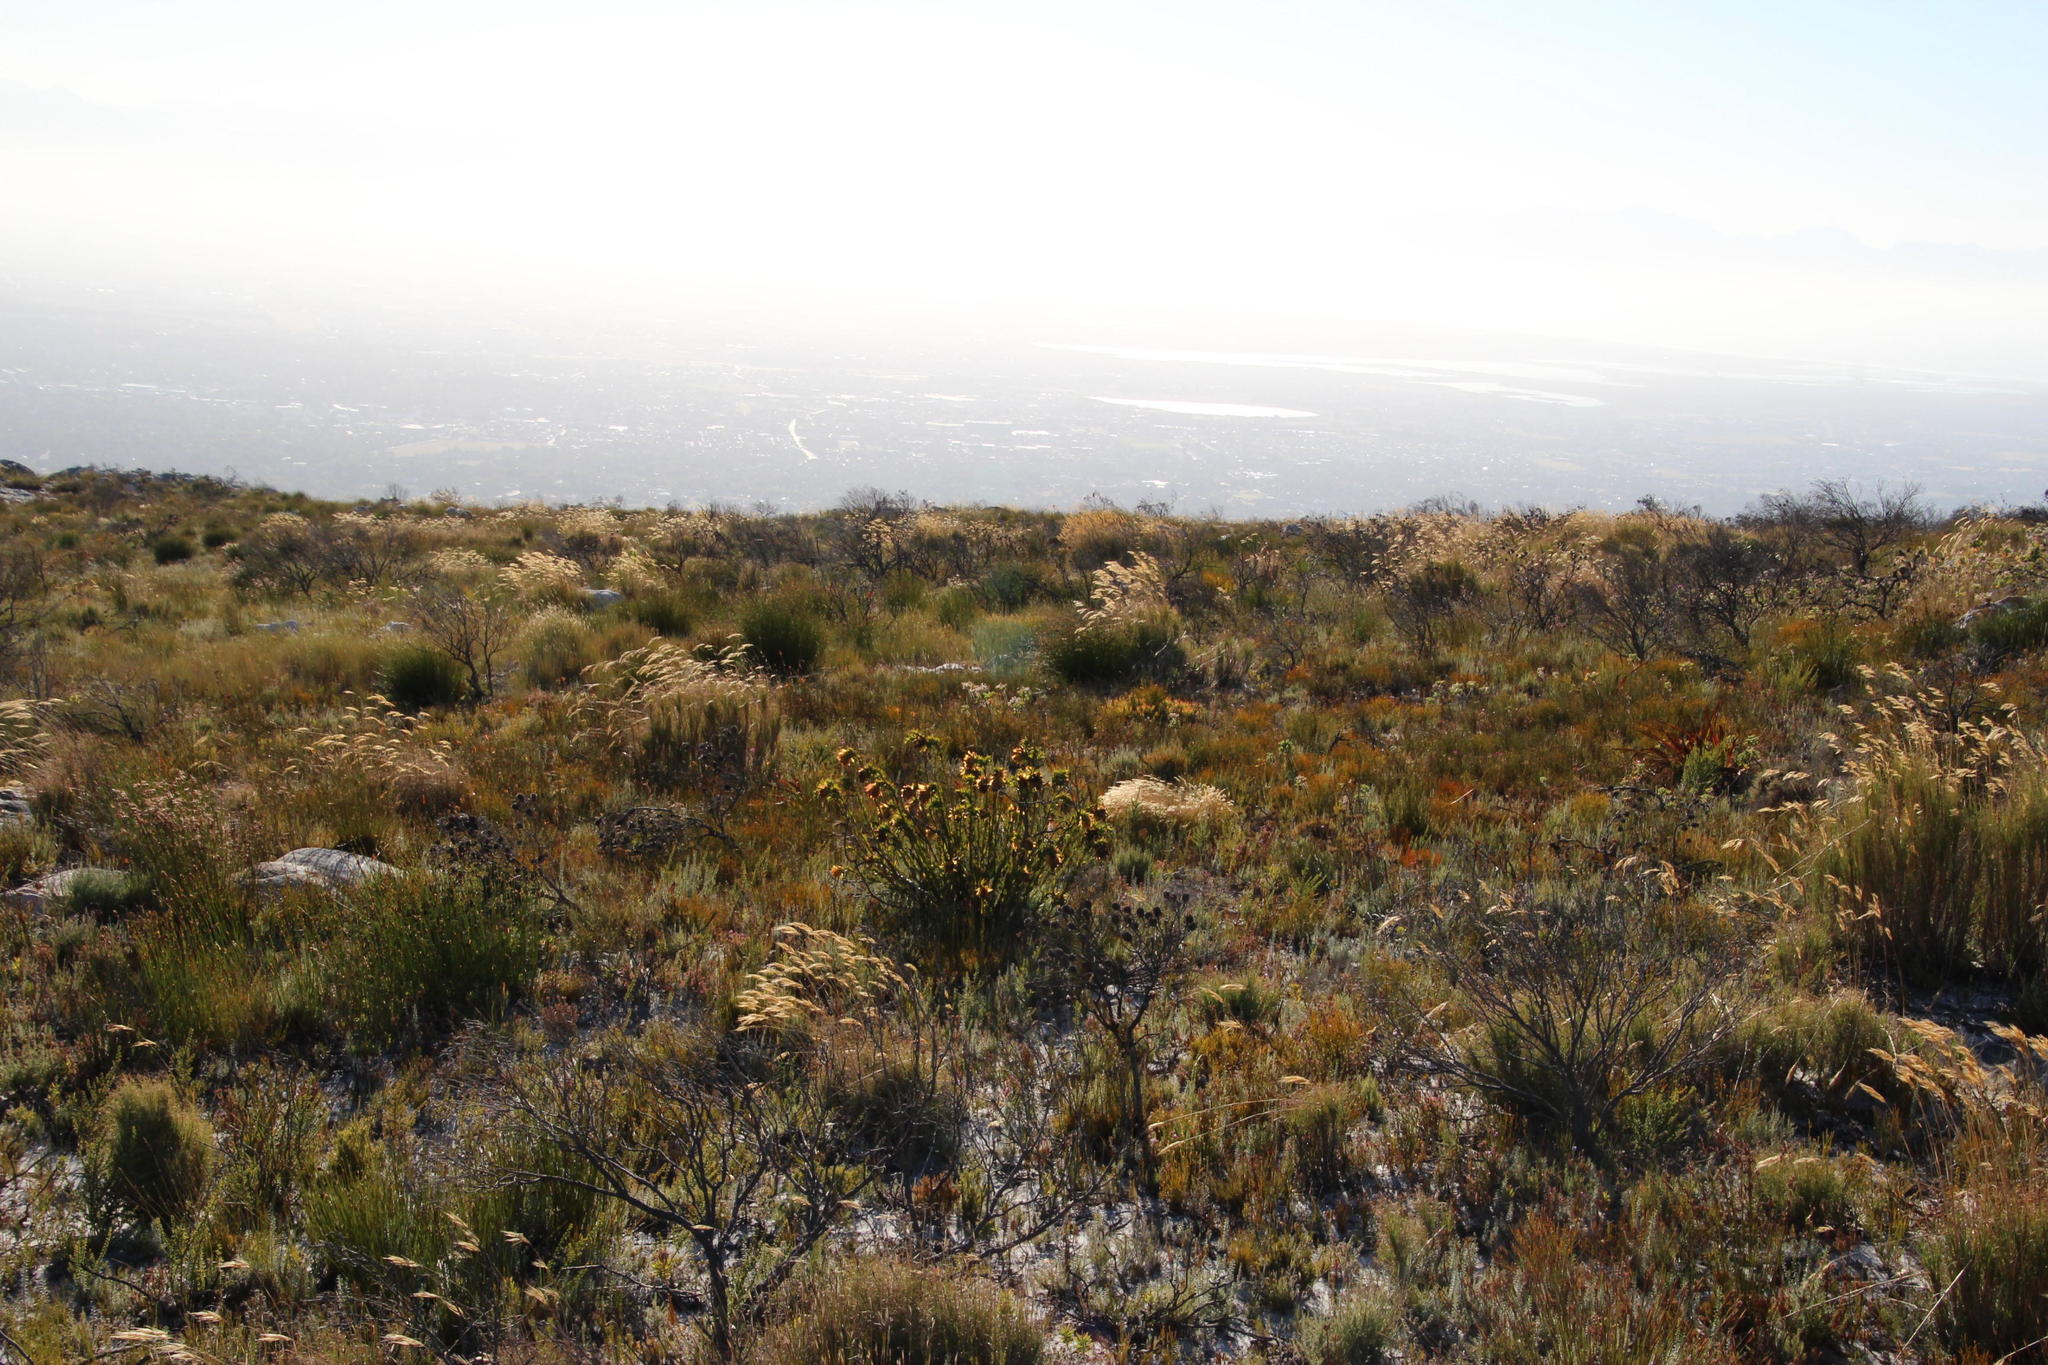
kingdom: Plantae
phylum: Tracheophyta
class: Magnoliopsida
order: Fabales
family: Fabaceae
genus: Liparia
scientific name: Liparia splendens
